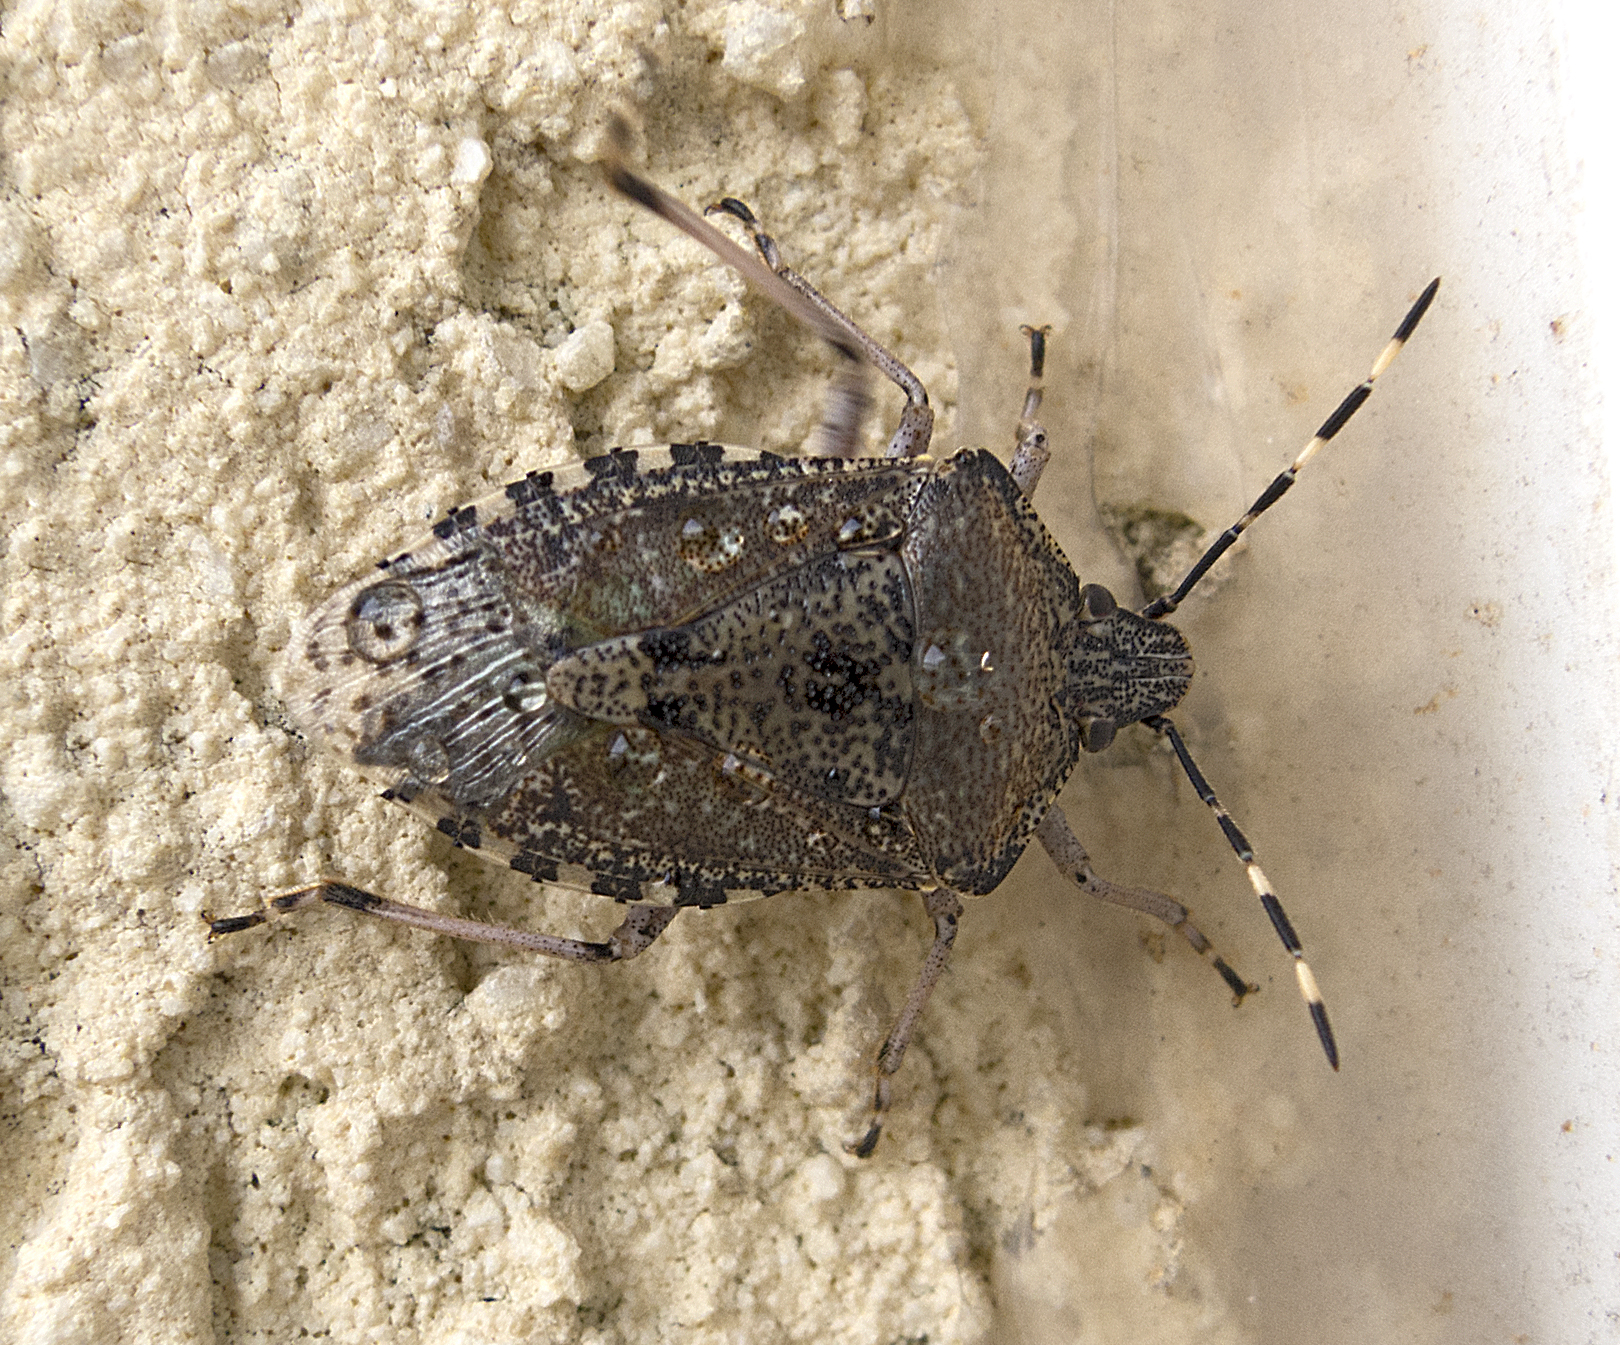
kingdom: Animalia
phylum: Arthropoda
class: Insecta
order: Hemiptera
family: Pentatomidae
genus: Rhaphigaster
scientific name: Rhaphigaster nebulosa
